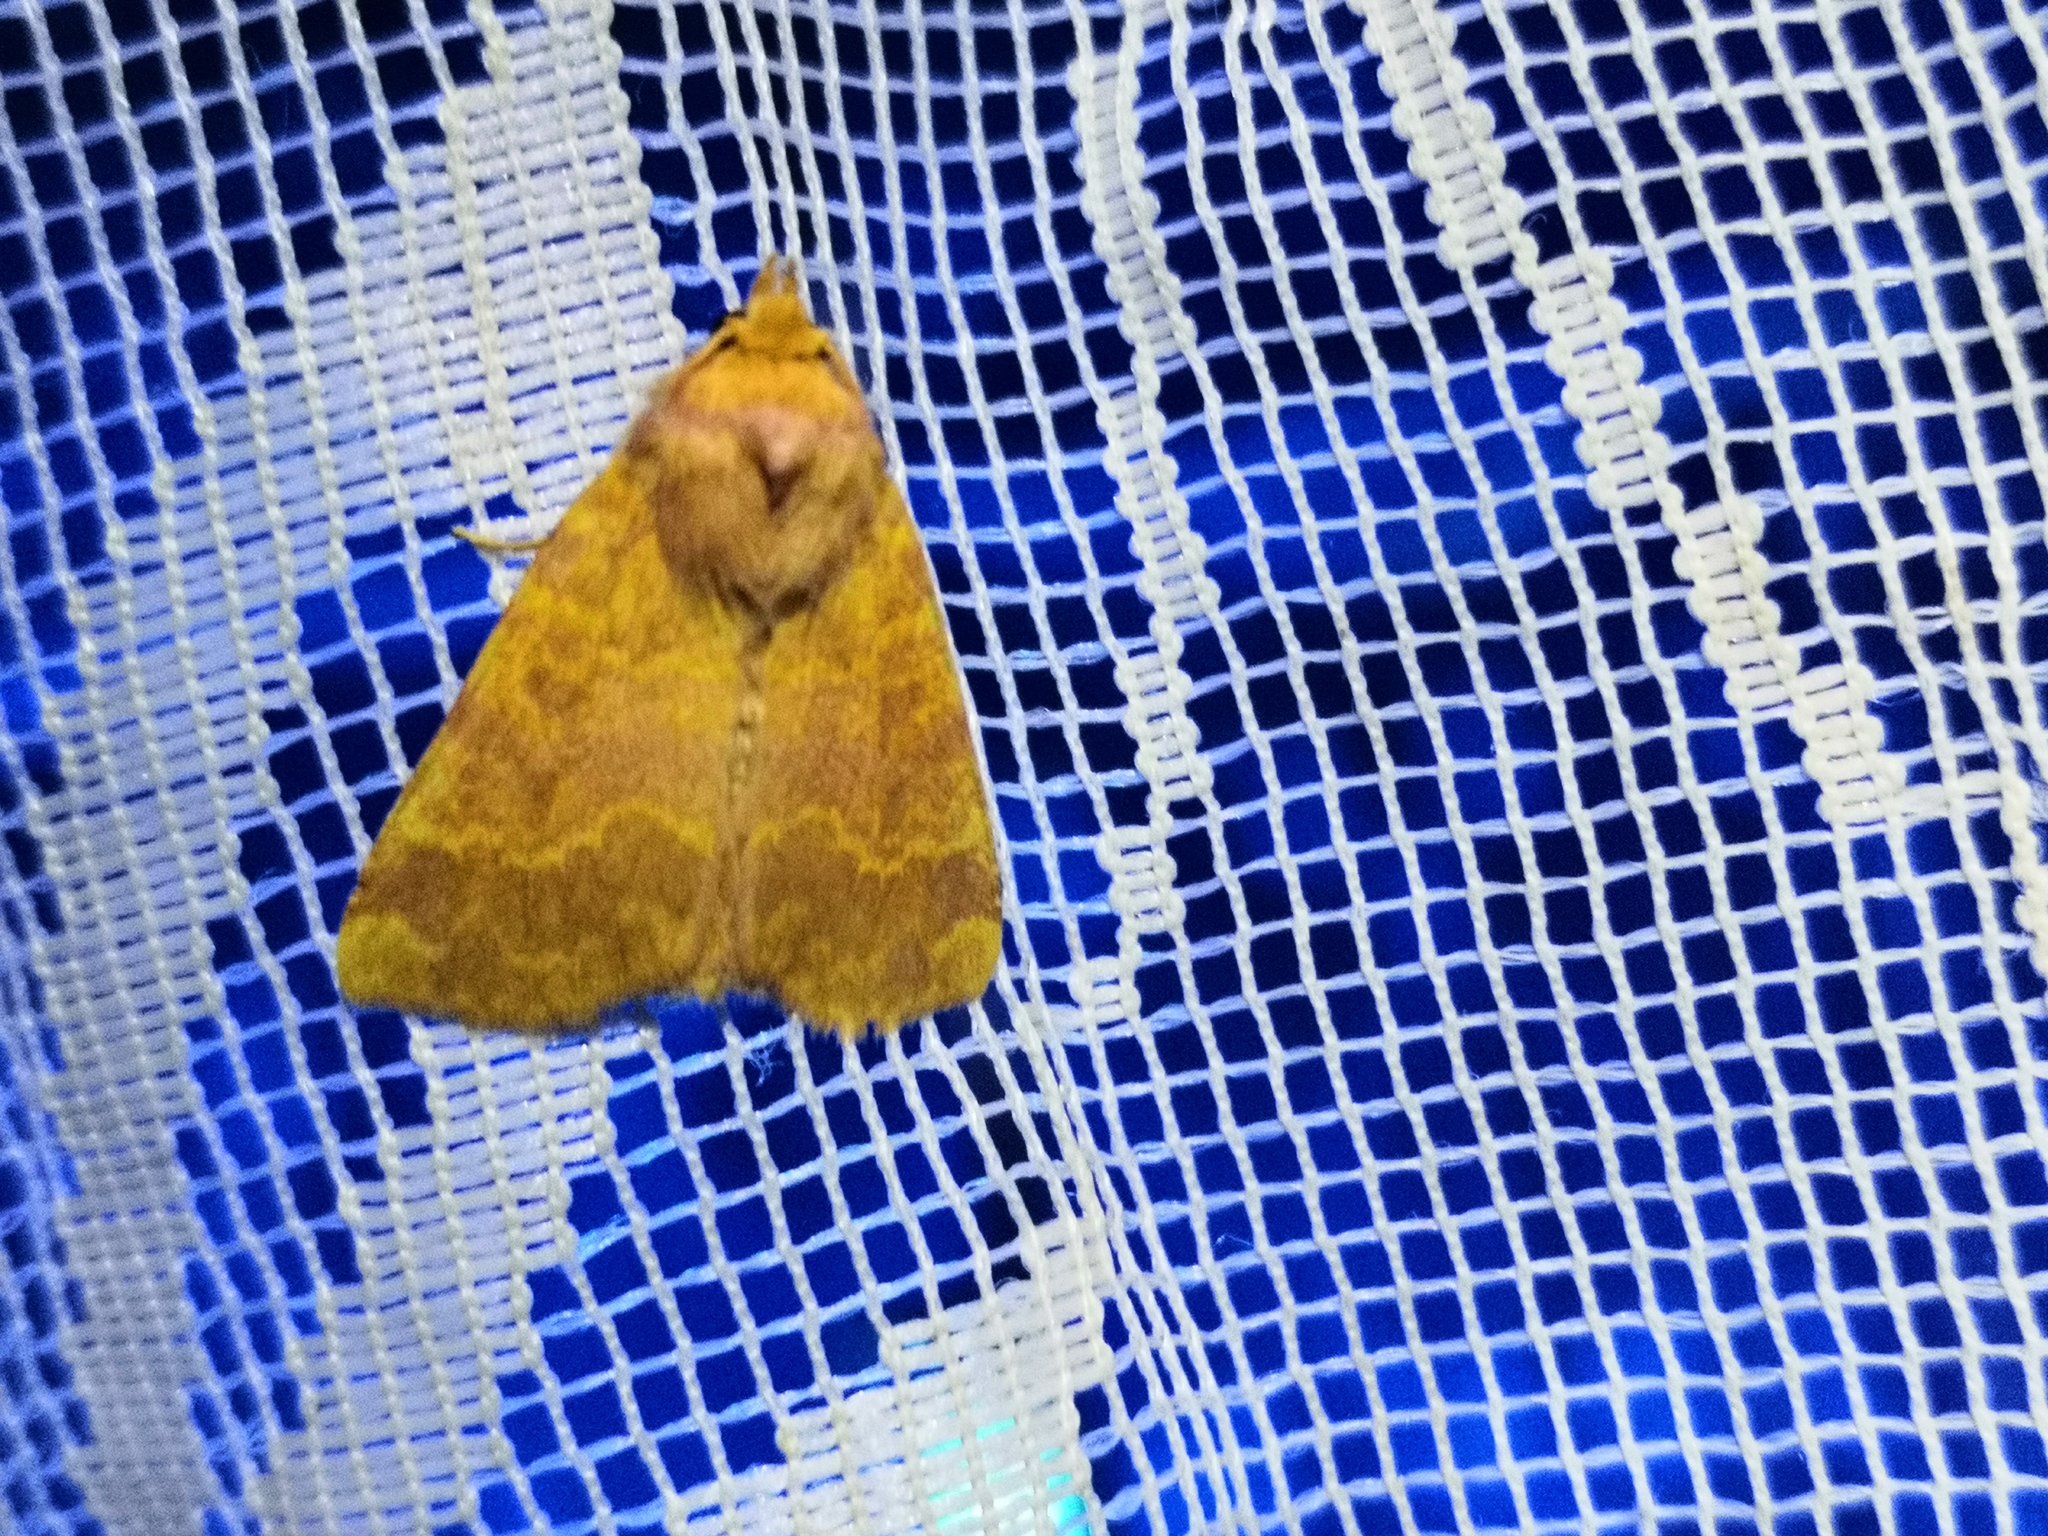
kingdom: Animalia
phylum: Arthropoda
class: Insecta
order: Lepidoptera
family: Noctuidae
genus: Tiliacea
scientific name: Tiliacea aurago
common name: Barred sallow
